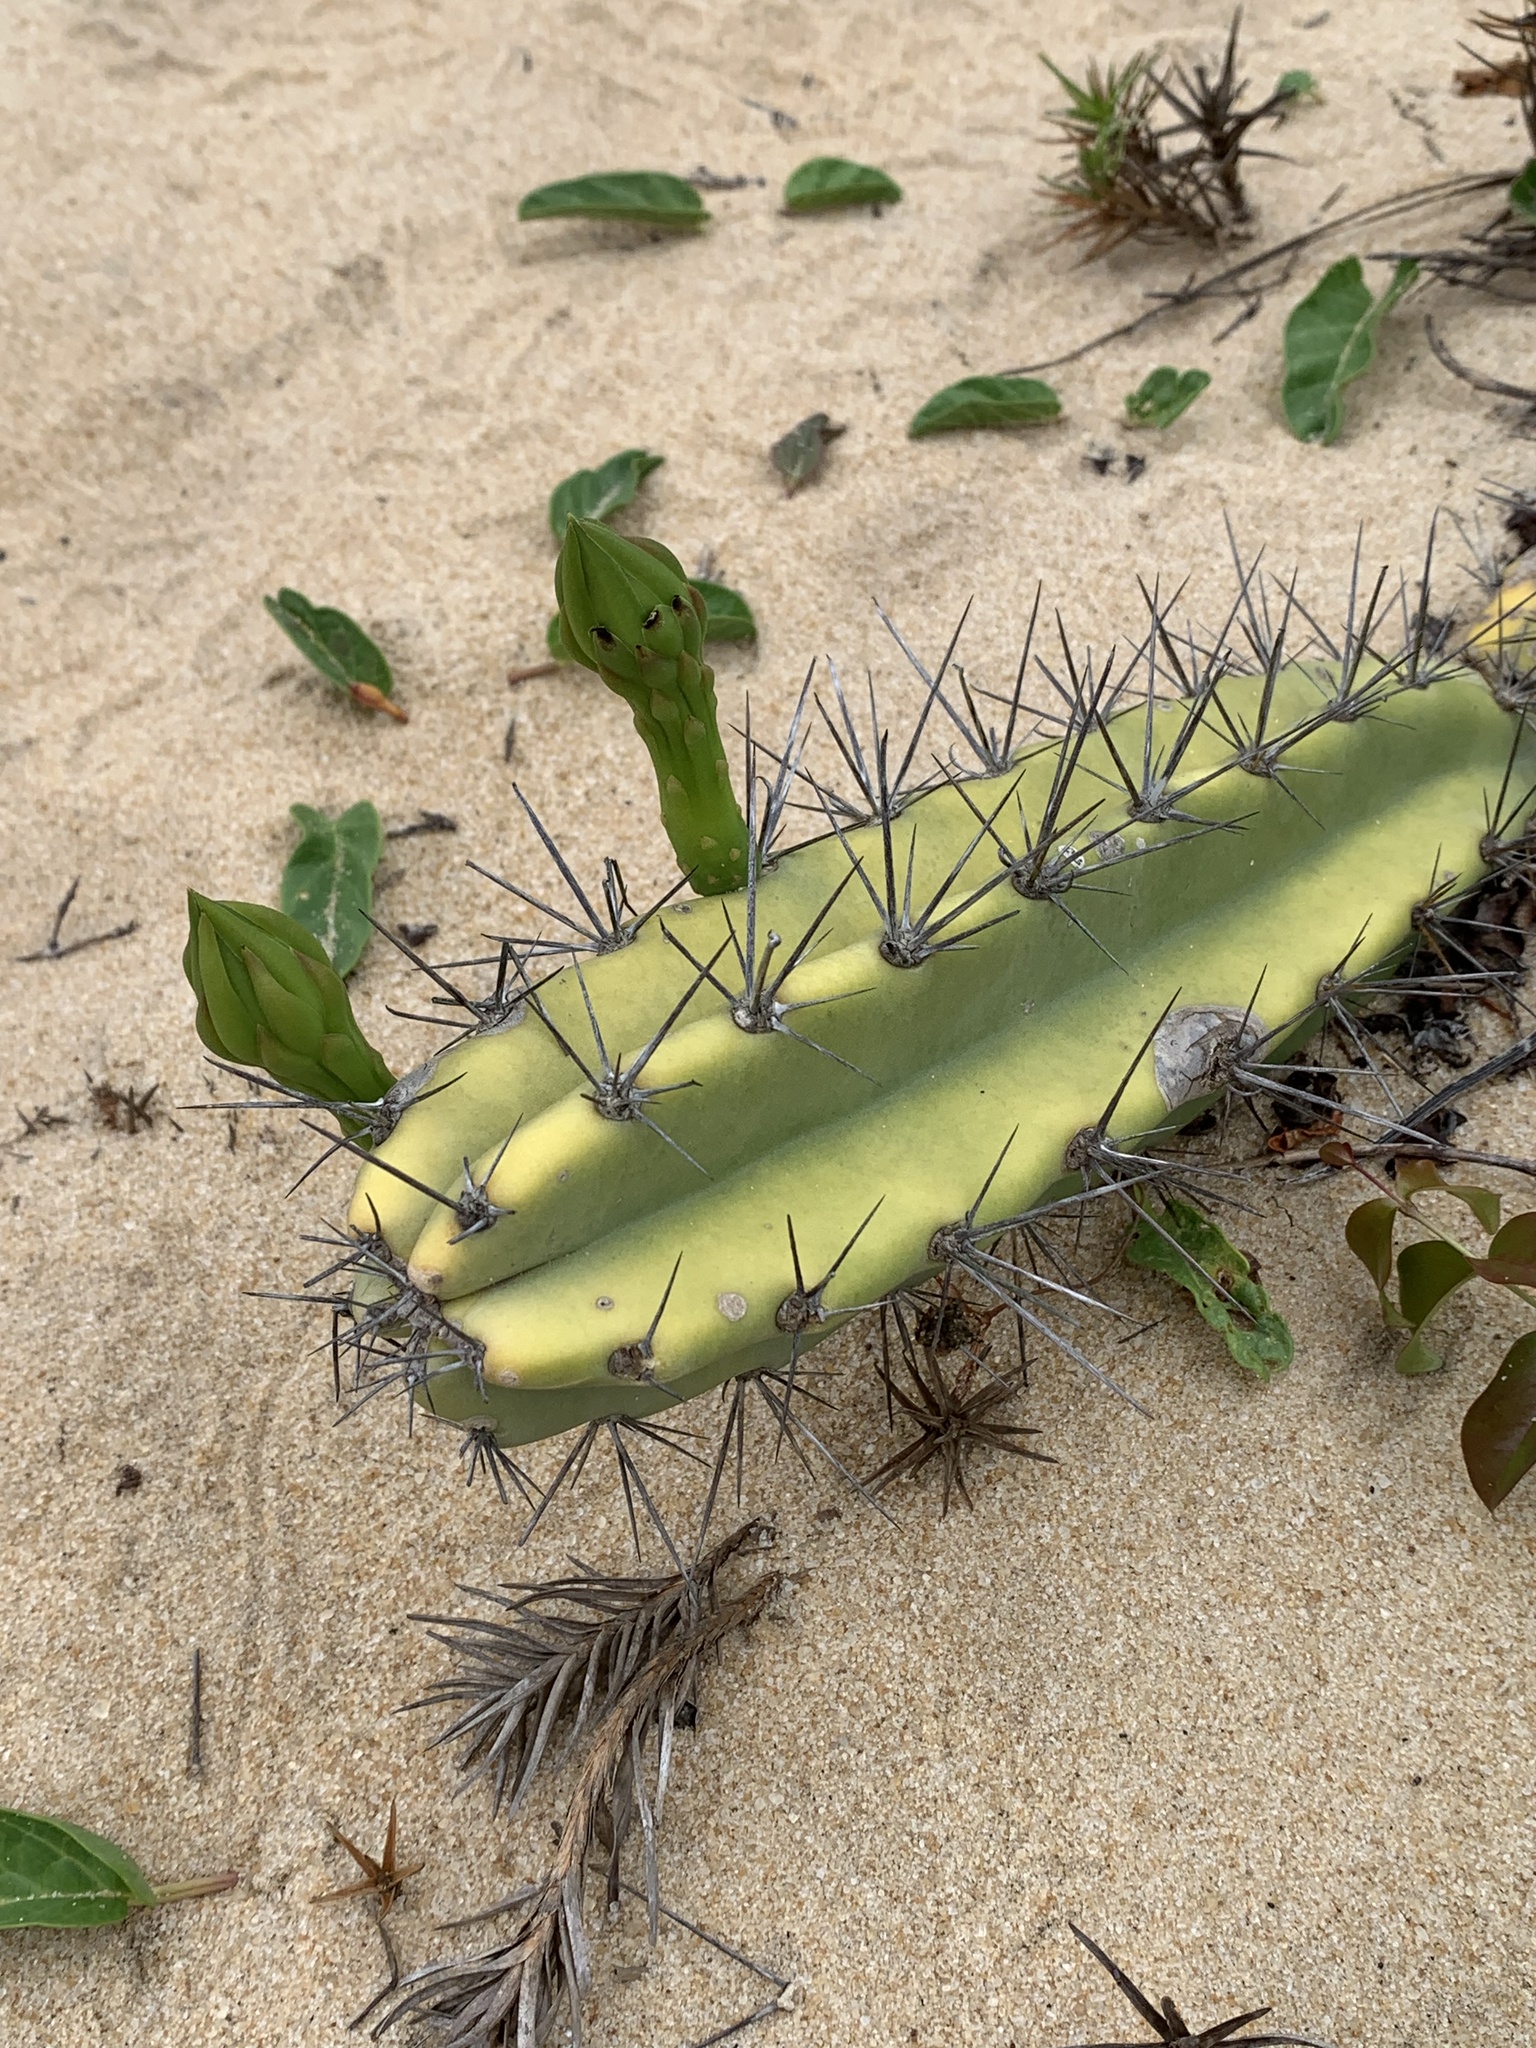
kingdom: Plantae
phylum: Tracheophyta
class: Magnoliopsida
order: Caryophyllales
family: Cactaceae
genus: Cereus
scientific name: Cereus fernambucensis
